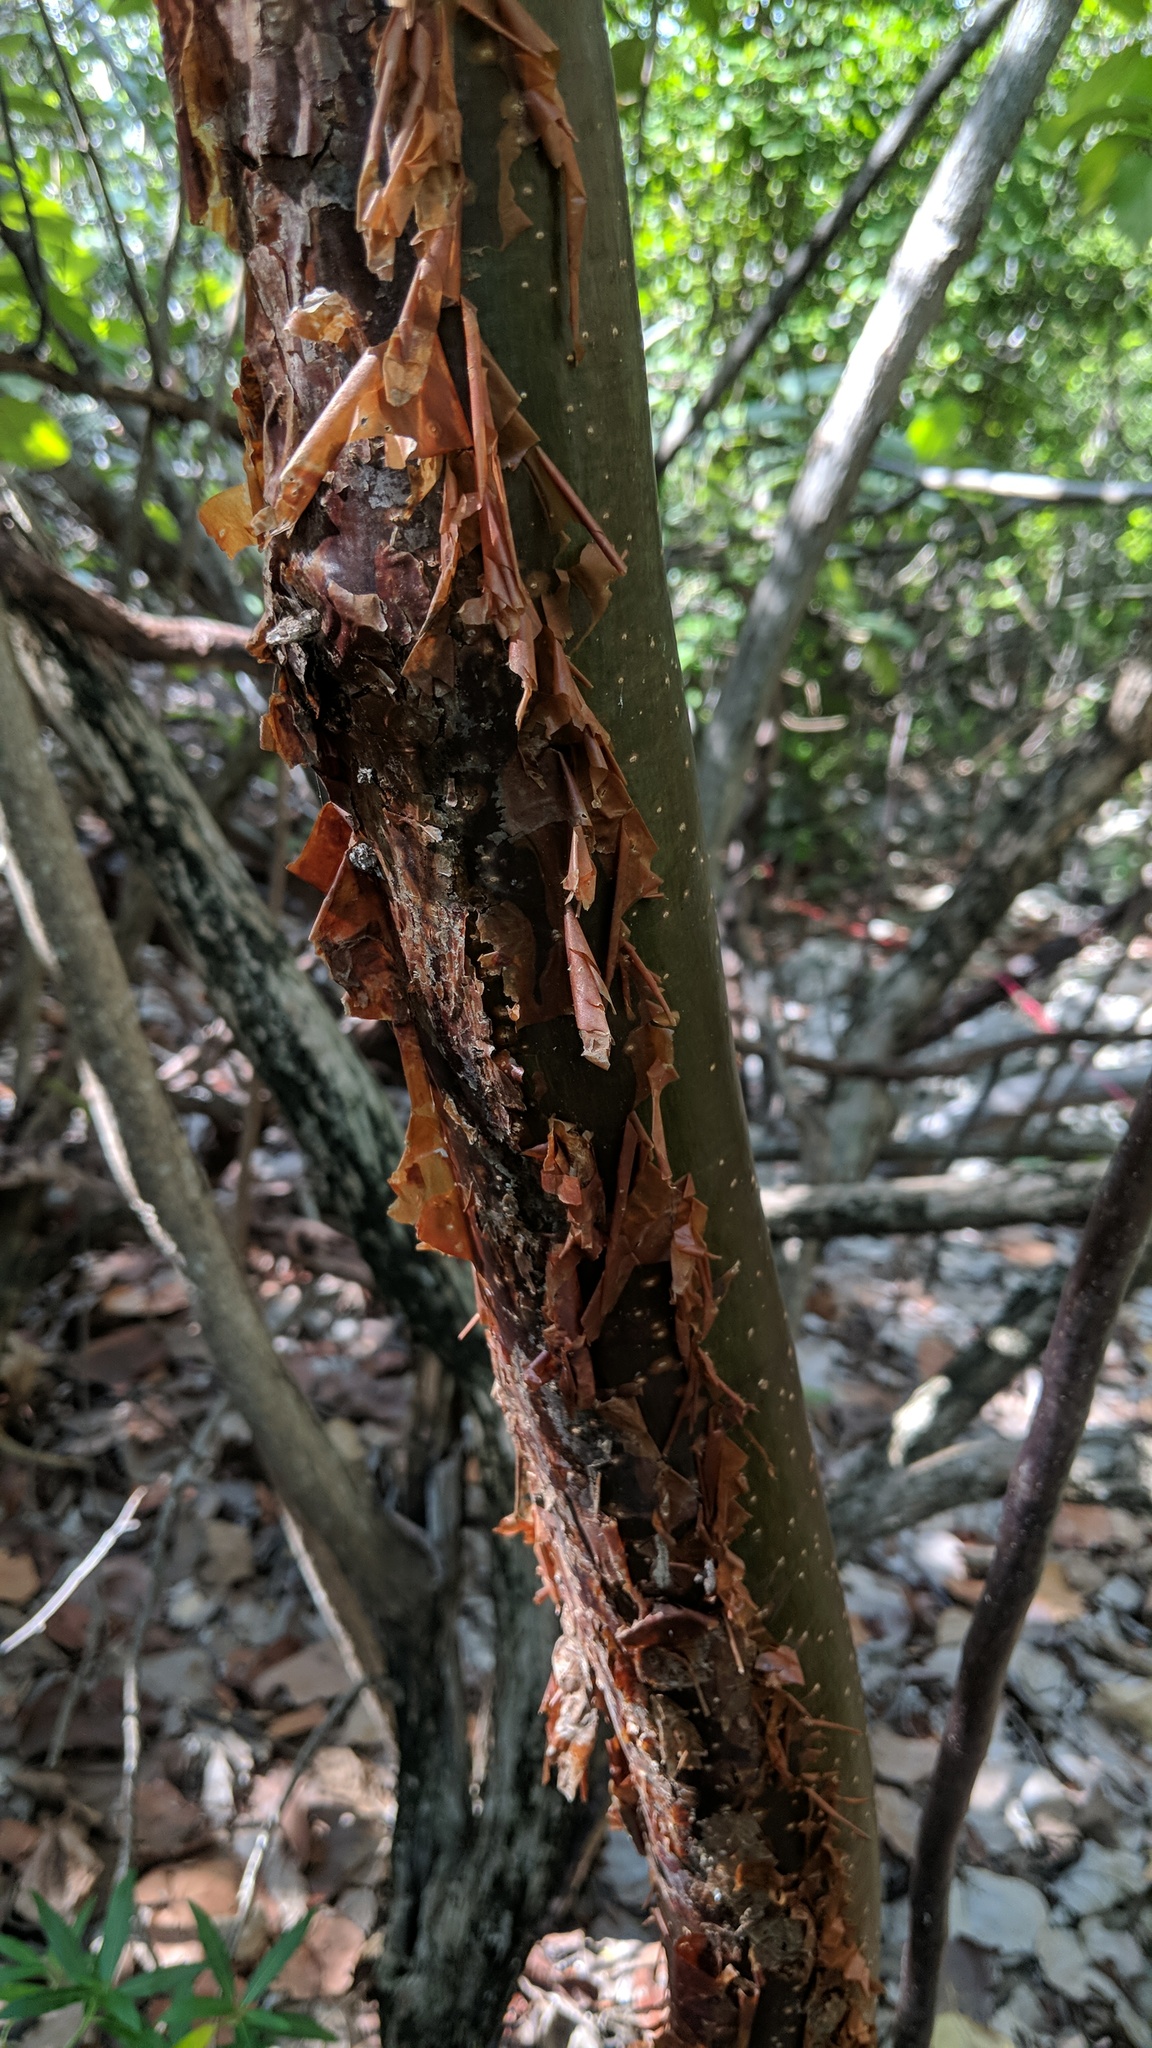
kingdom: Plantae
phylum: Tracheophyta
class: Magnoliopsida
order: Sapindales
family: Burseraceae
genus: Bursera
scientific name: Bursera simaruba
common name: Turpentine tree
